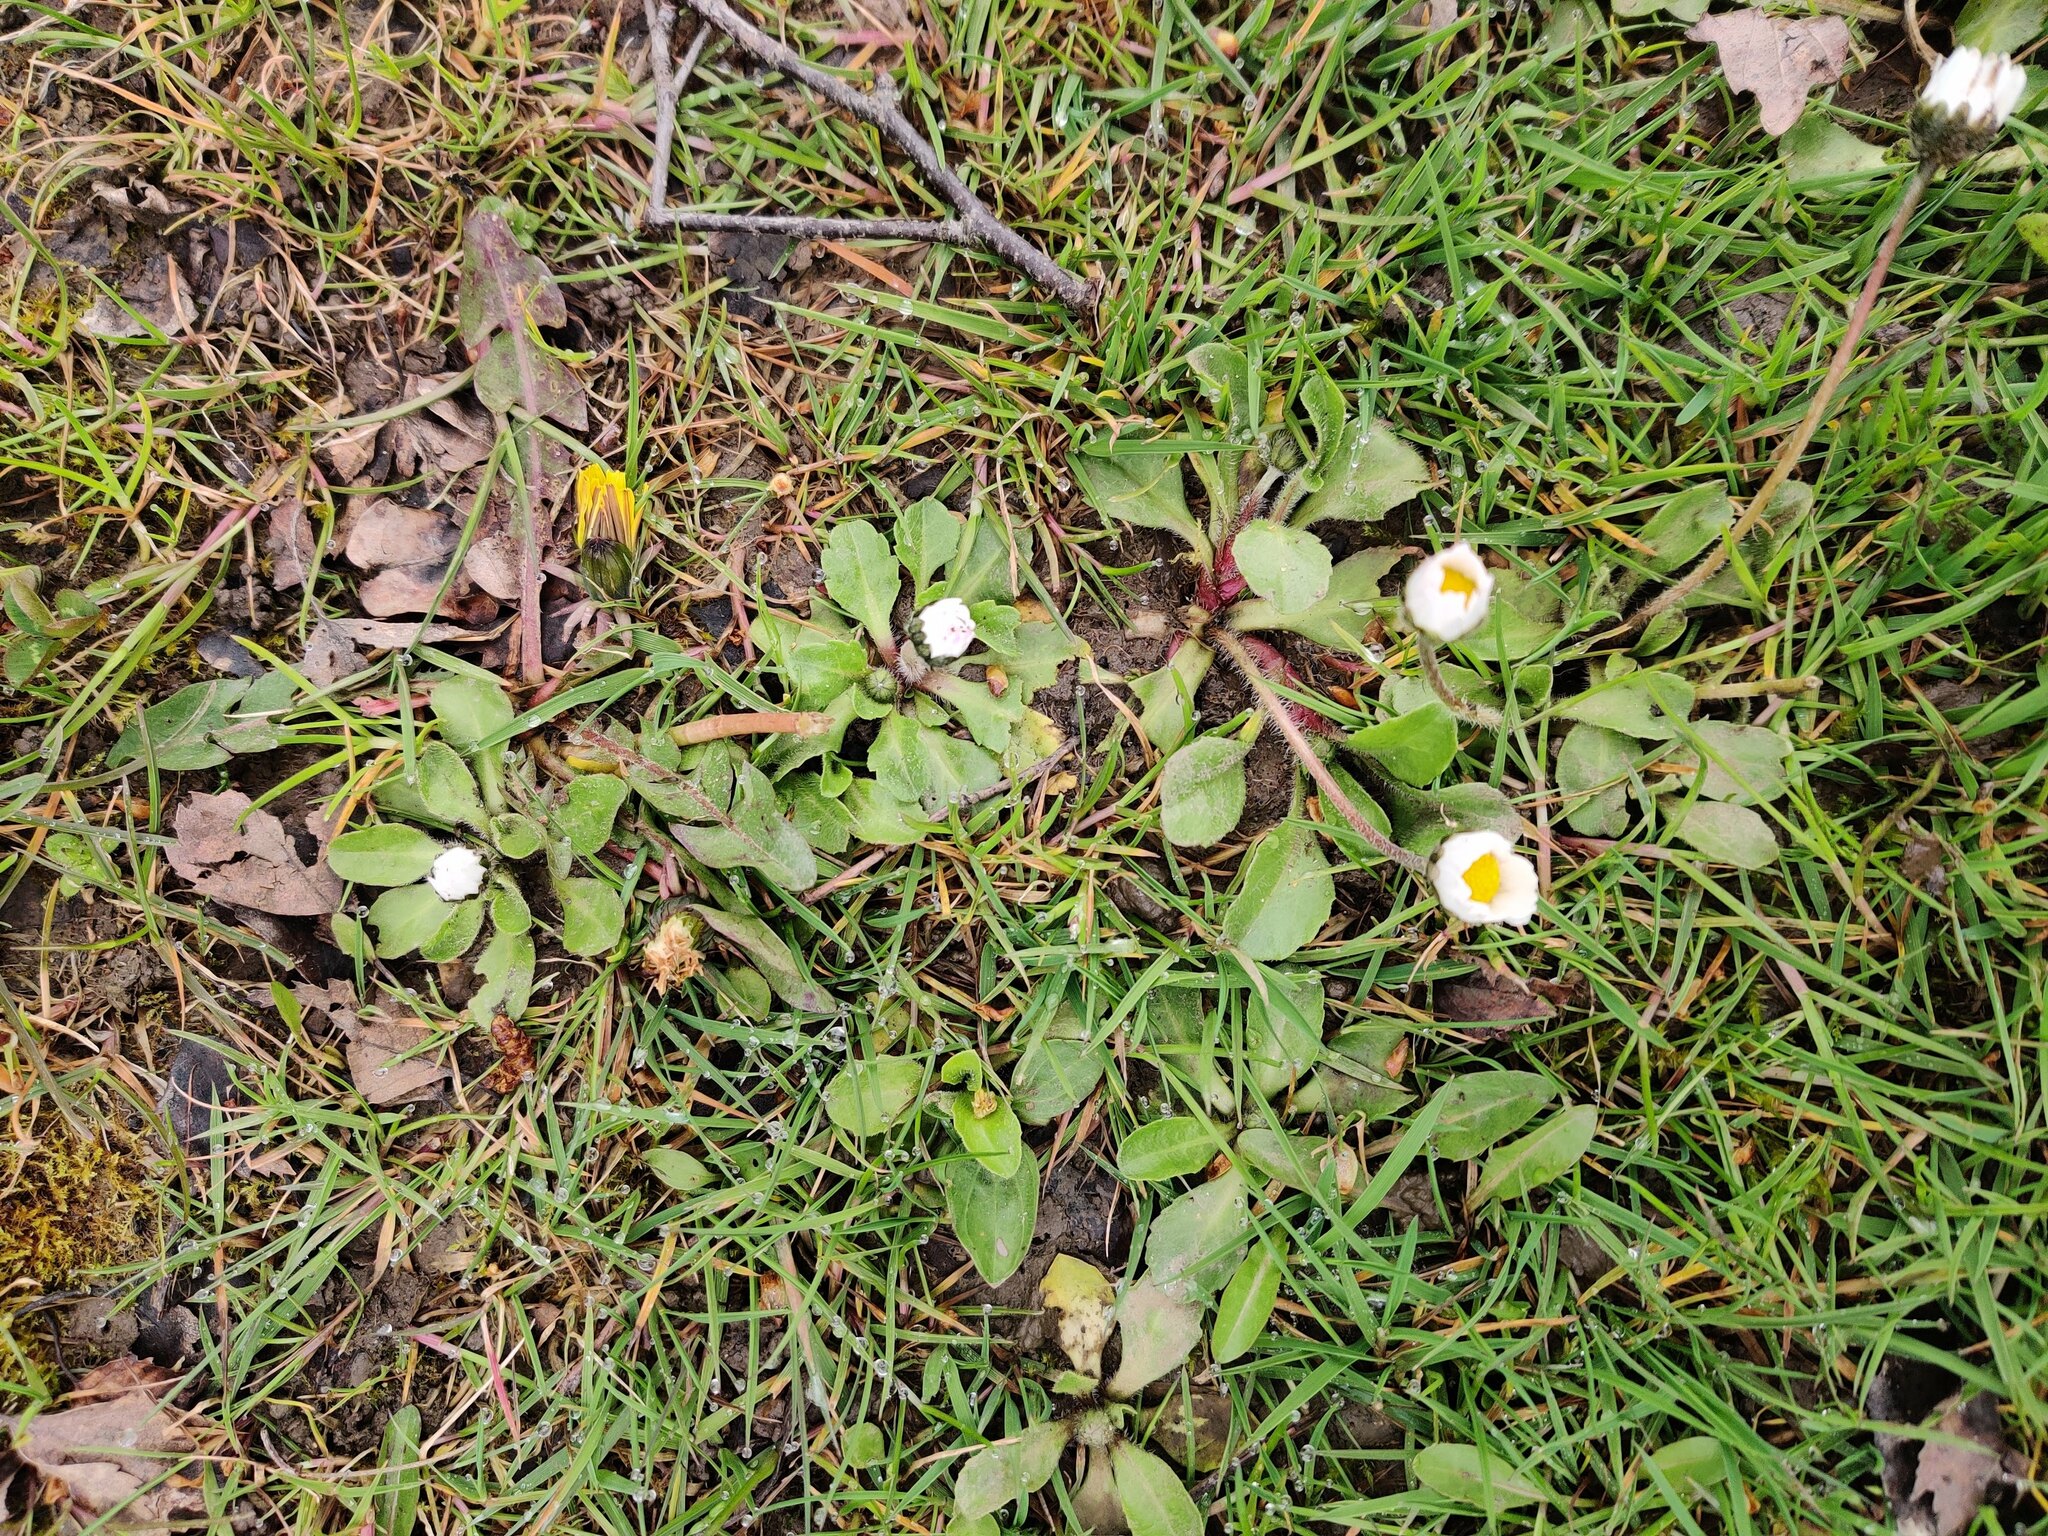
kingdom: Plantae
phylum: Tracheophyta
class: Magnoliopsida
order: Asterales
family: Asteraceae
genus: Bellis
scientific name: Bellis perennis
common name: Lawndaisy
